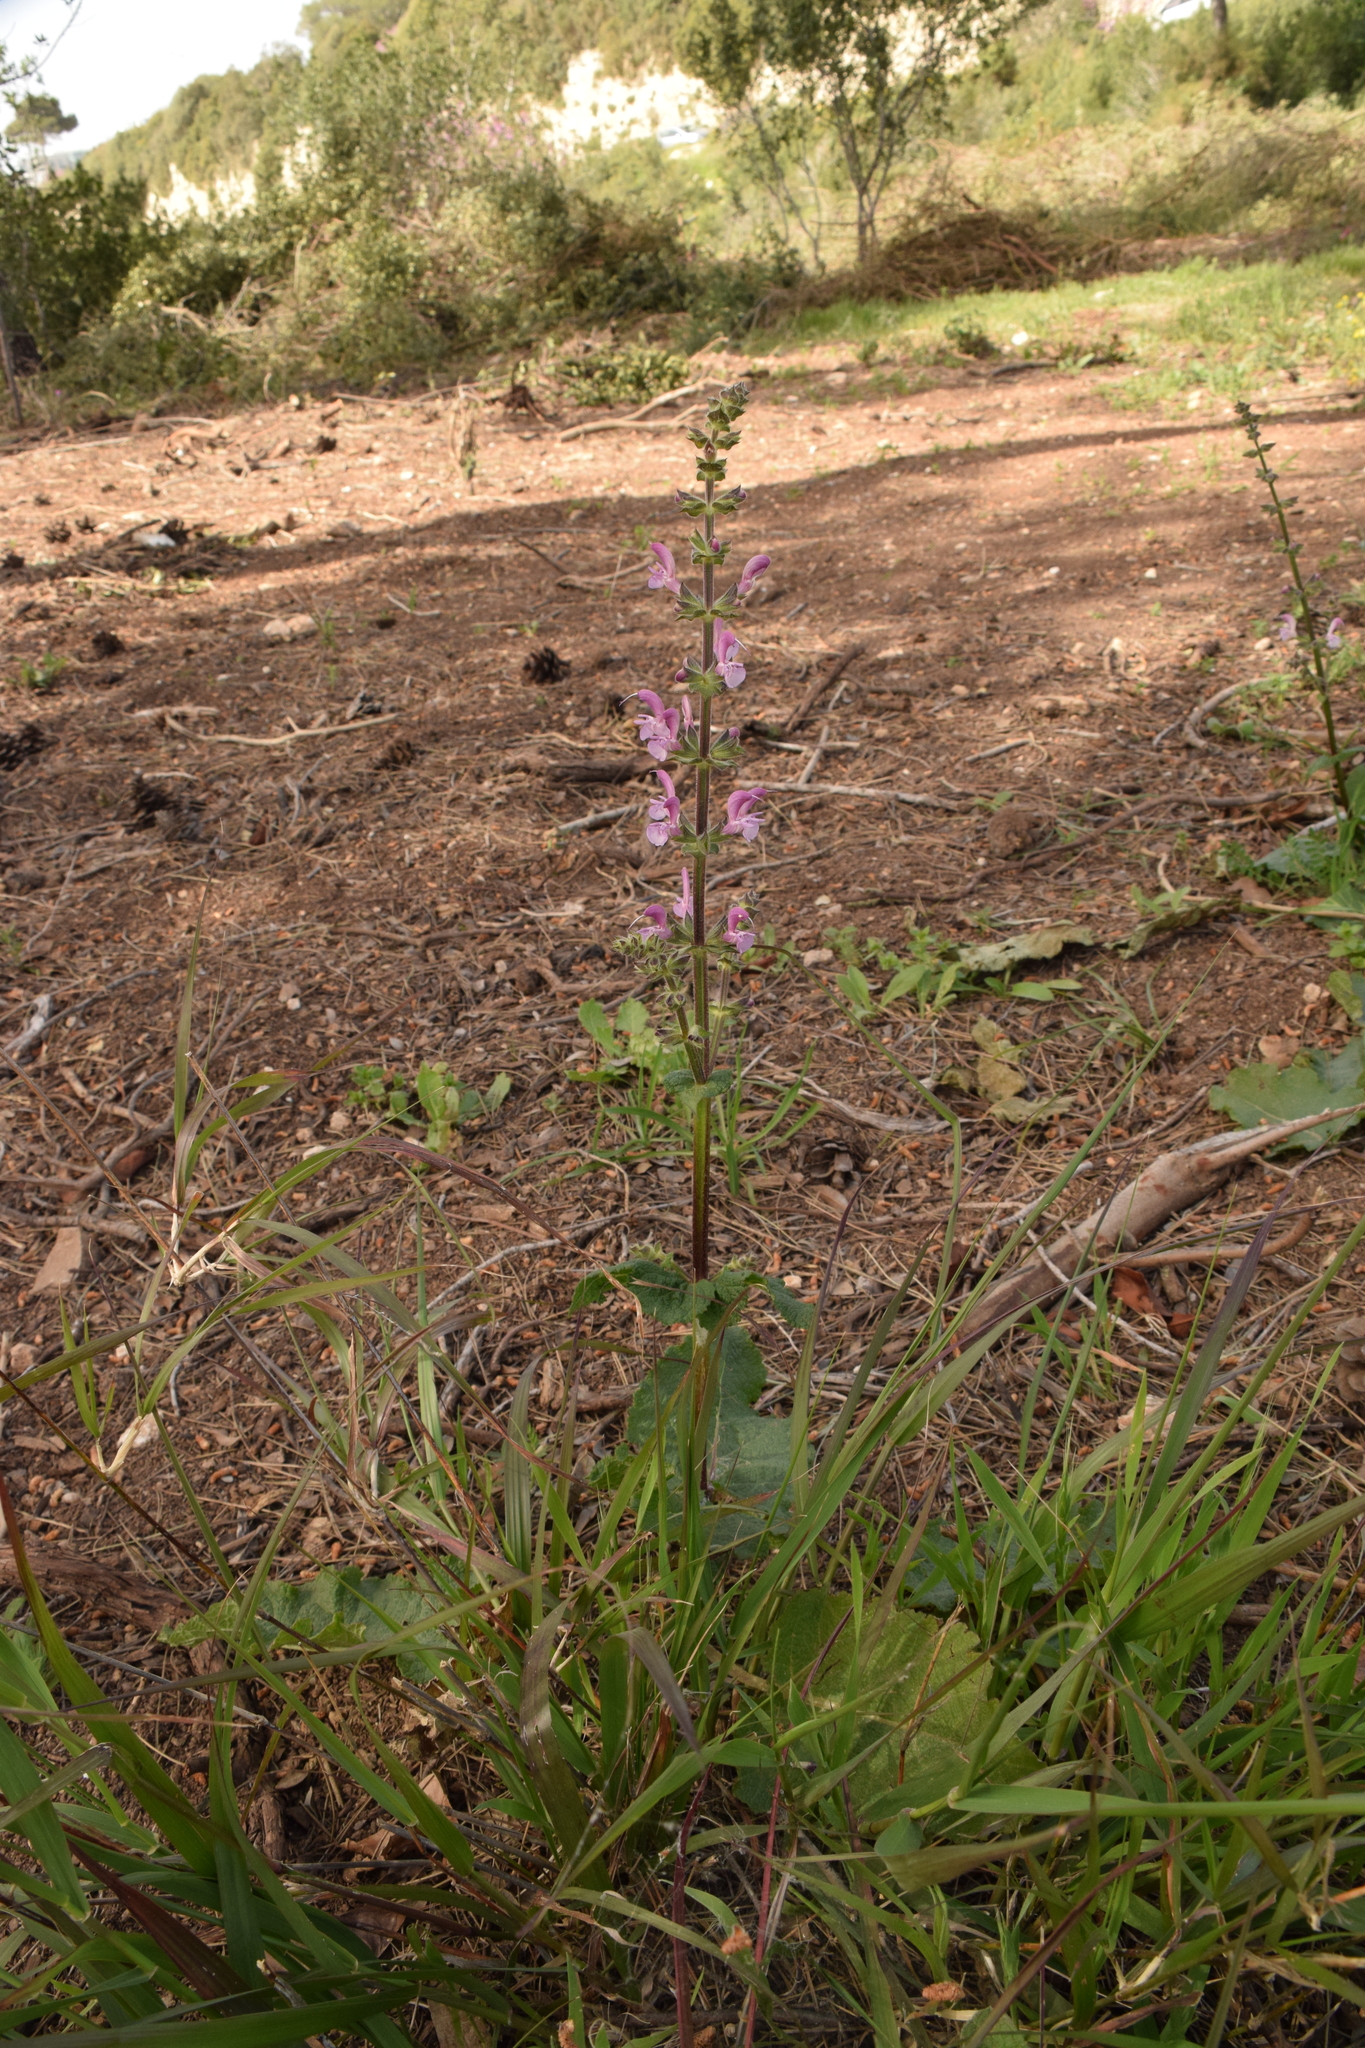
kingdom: Plantae
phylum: Tracheophyta
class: Magnoliopsida
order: Lamiales
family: Lamiaceae
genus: Salvia
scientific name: Salvia hierosolymitana
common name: Jerusalem salvia
